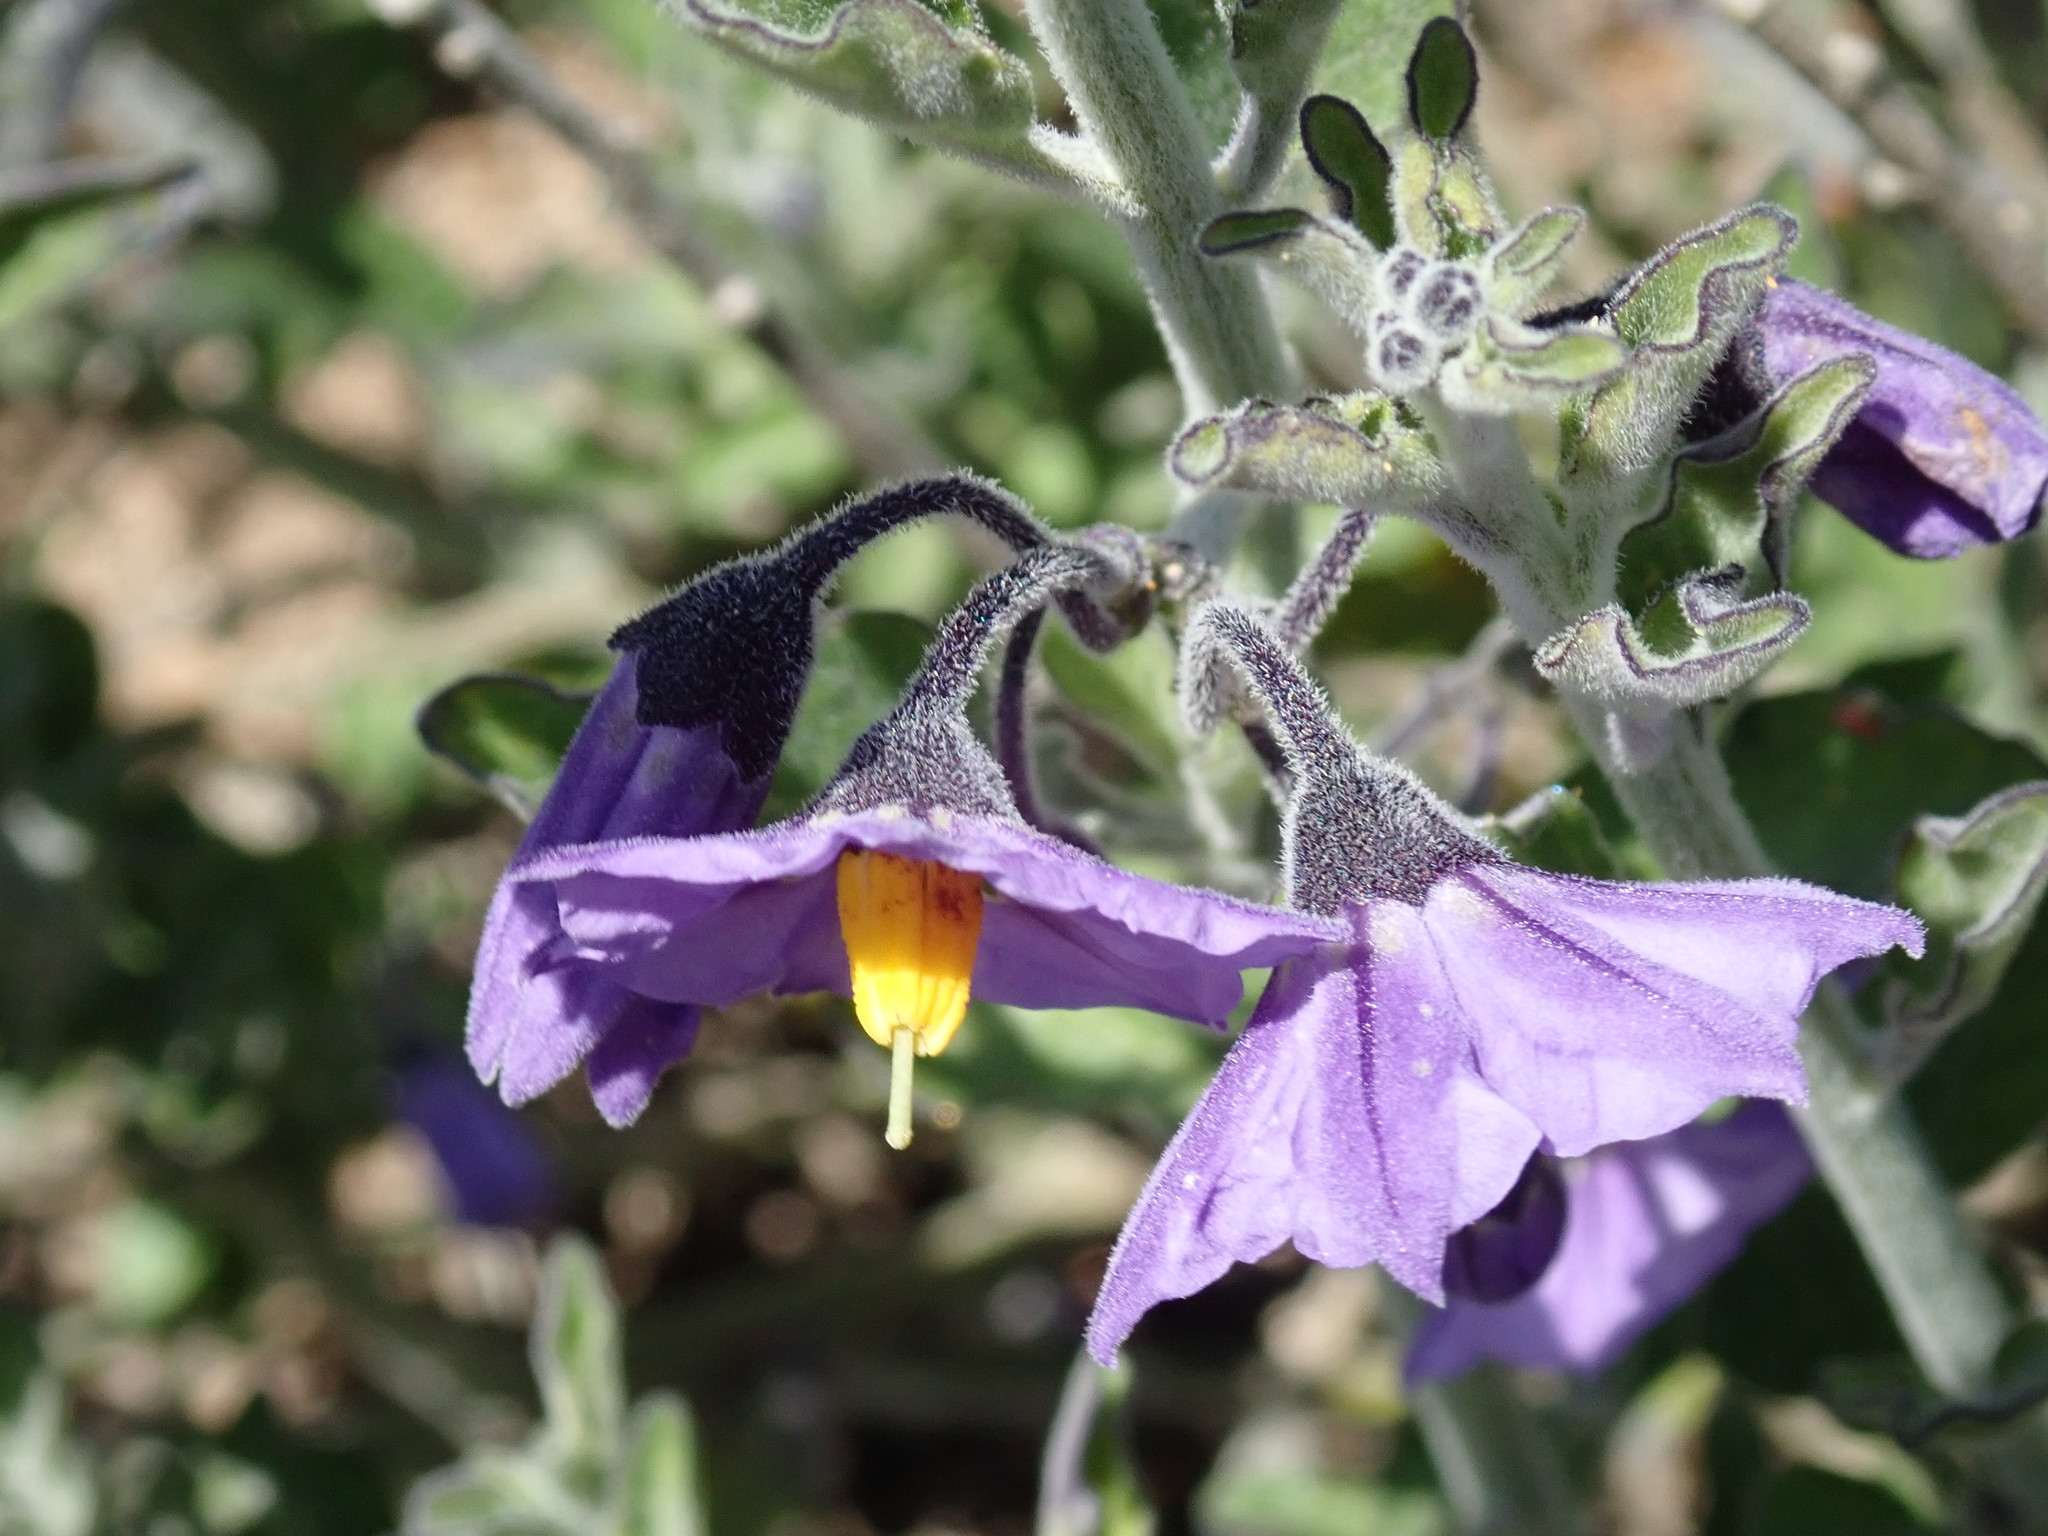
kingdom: Plantae
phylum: Tracheophyta
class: Magnoliopsida
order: Solanales
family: Solanaceae
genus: Solanum
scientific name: Solanum umbelliferum
